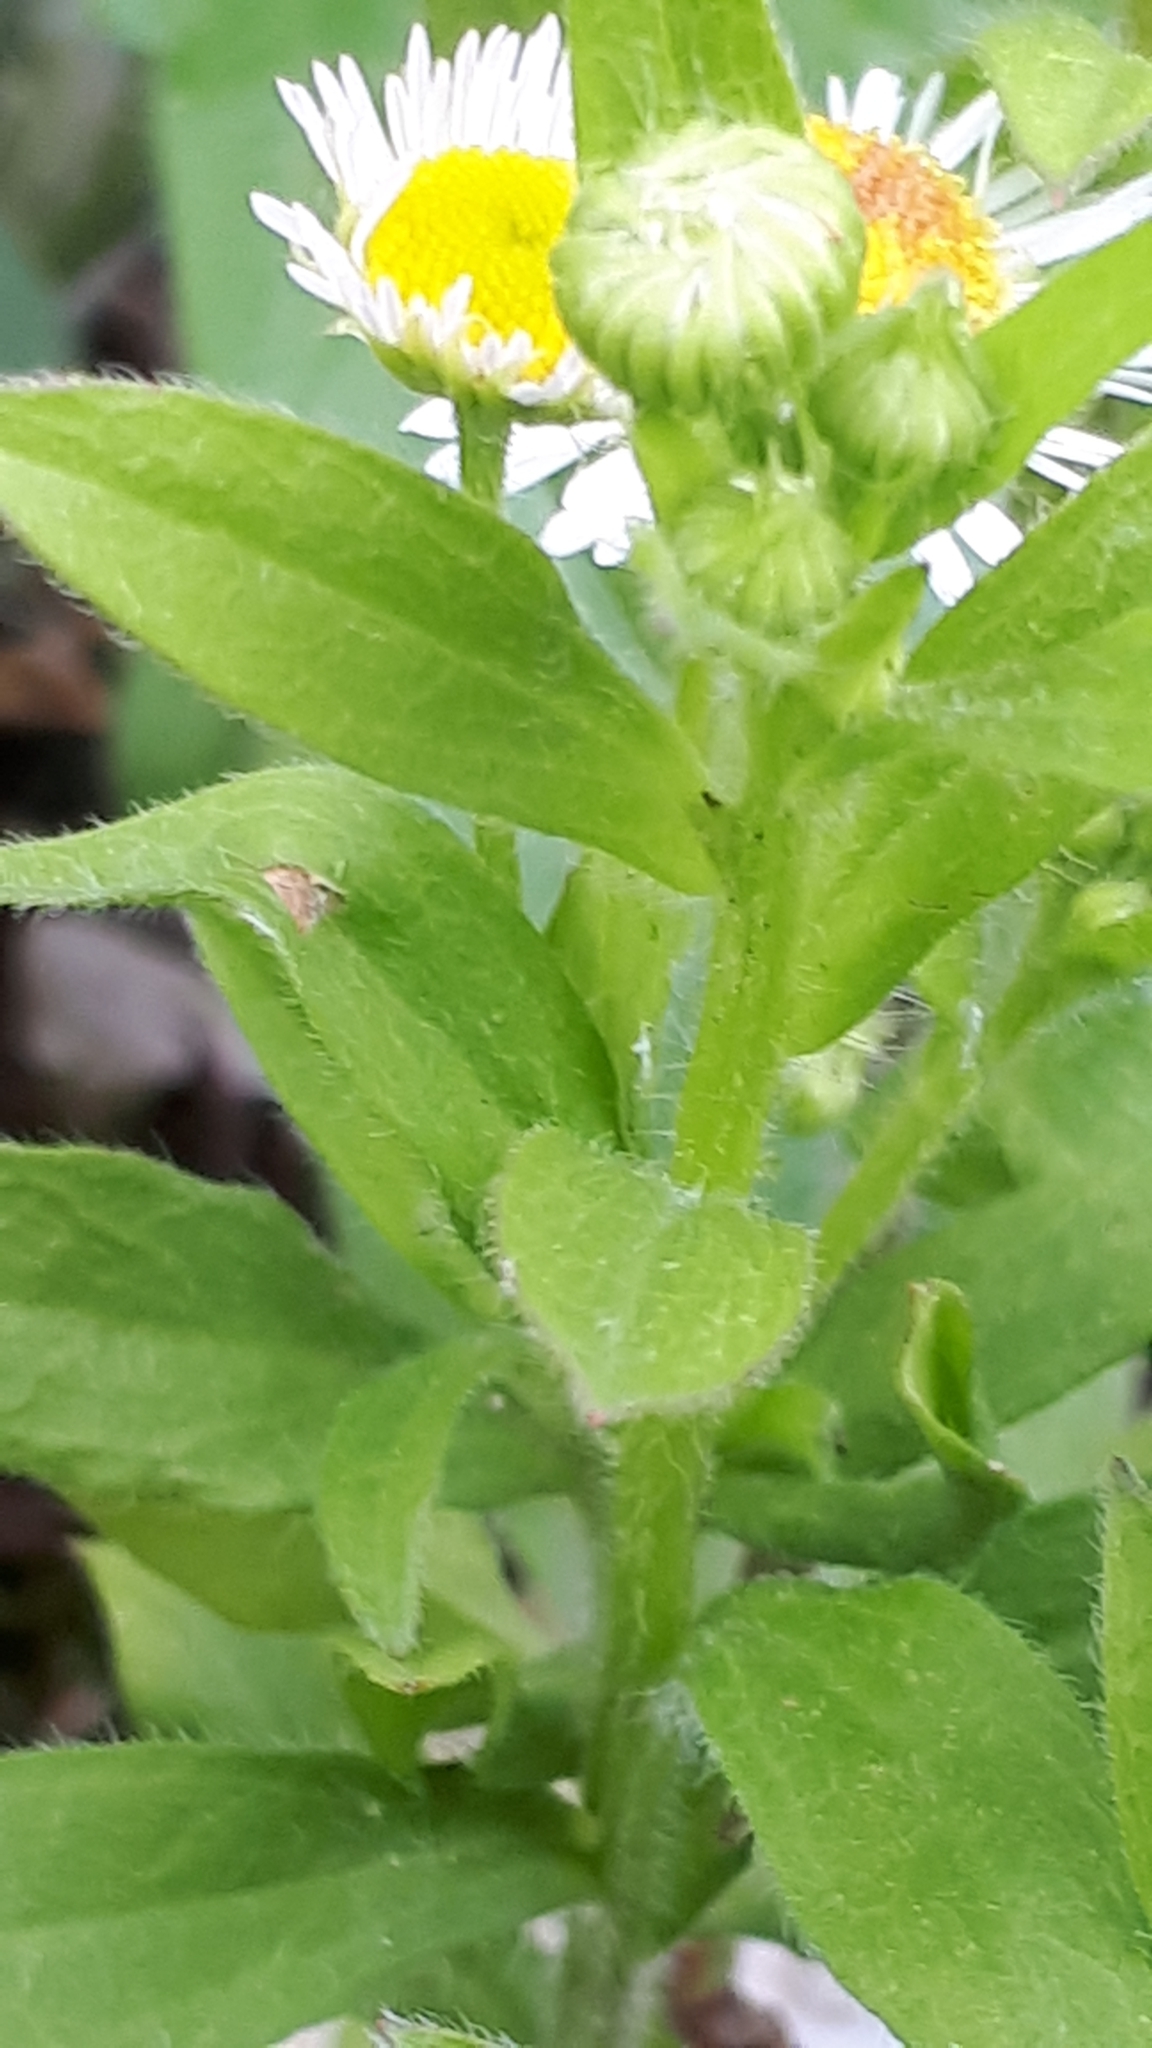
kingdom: Plantae
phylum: Tracheophyta
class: Magnoliopsida
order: Asterales
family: Asteraceae
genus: Erigeron
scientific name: Erigeron annuus
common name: Tall fleabane
